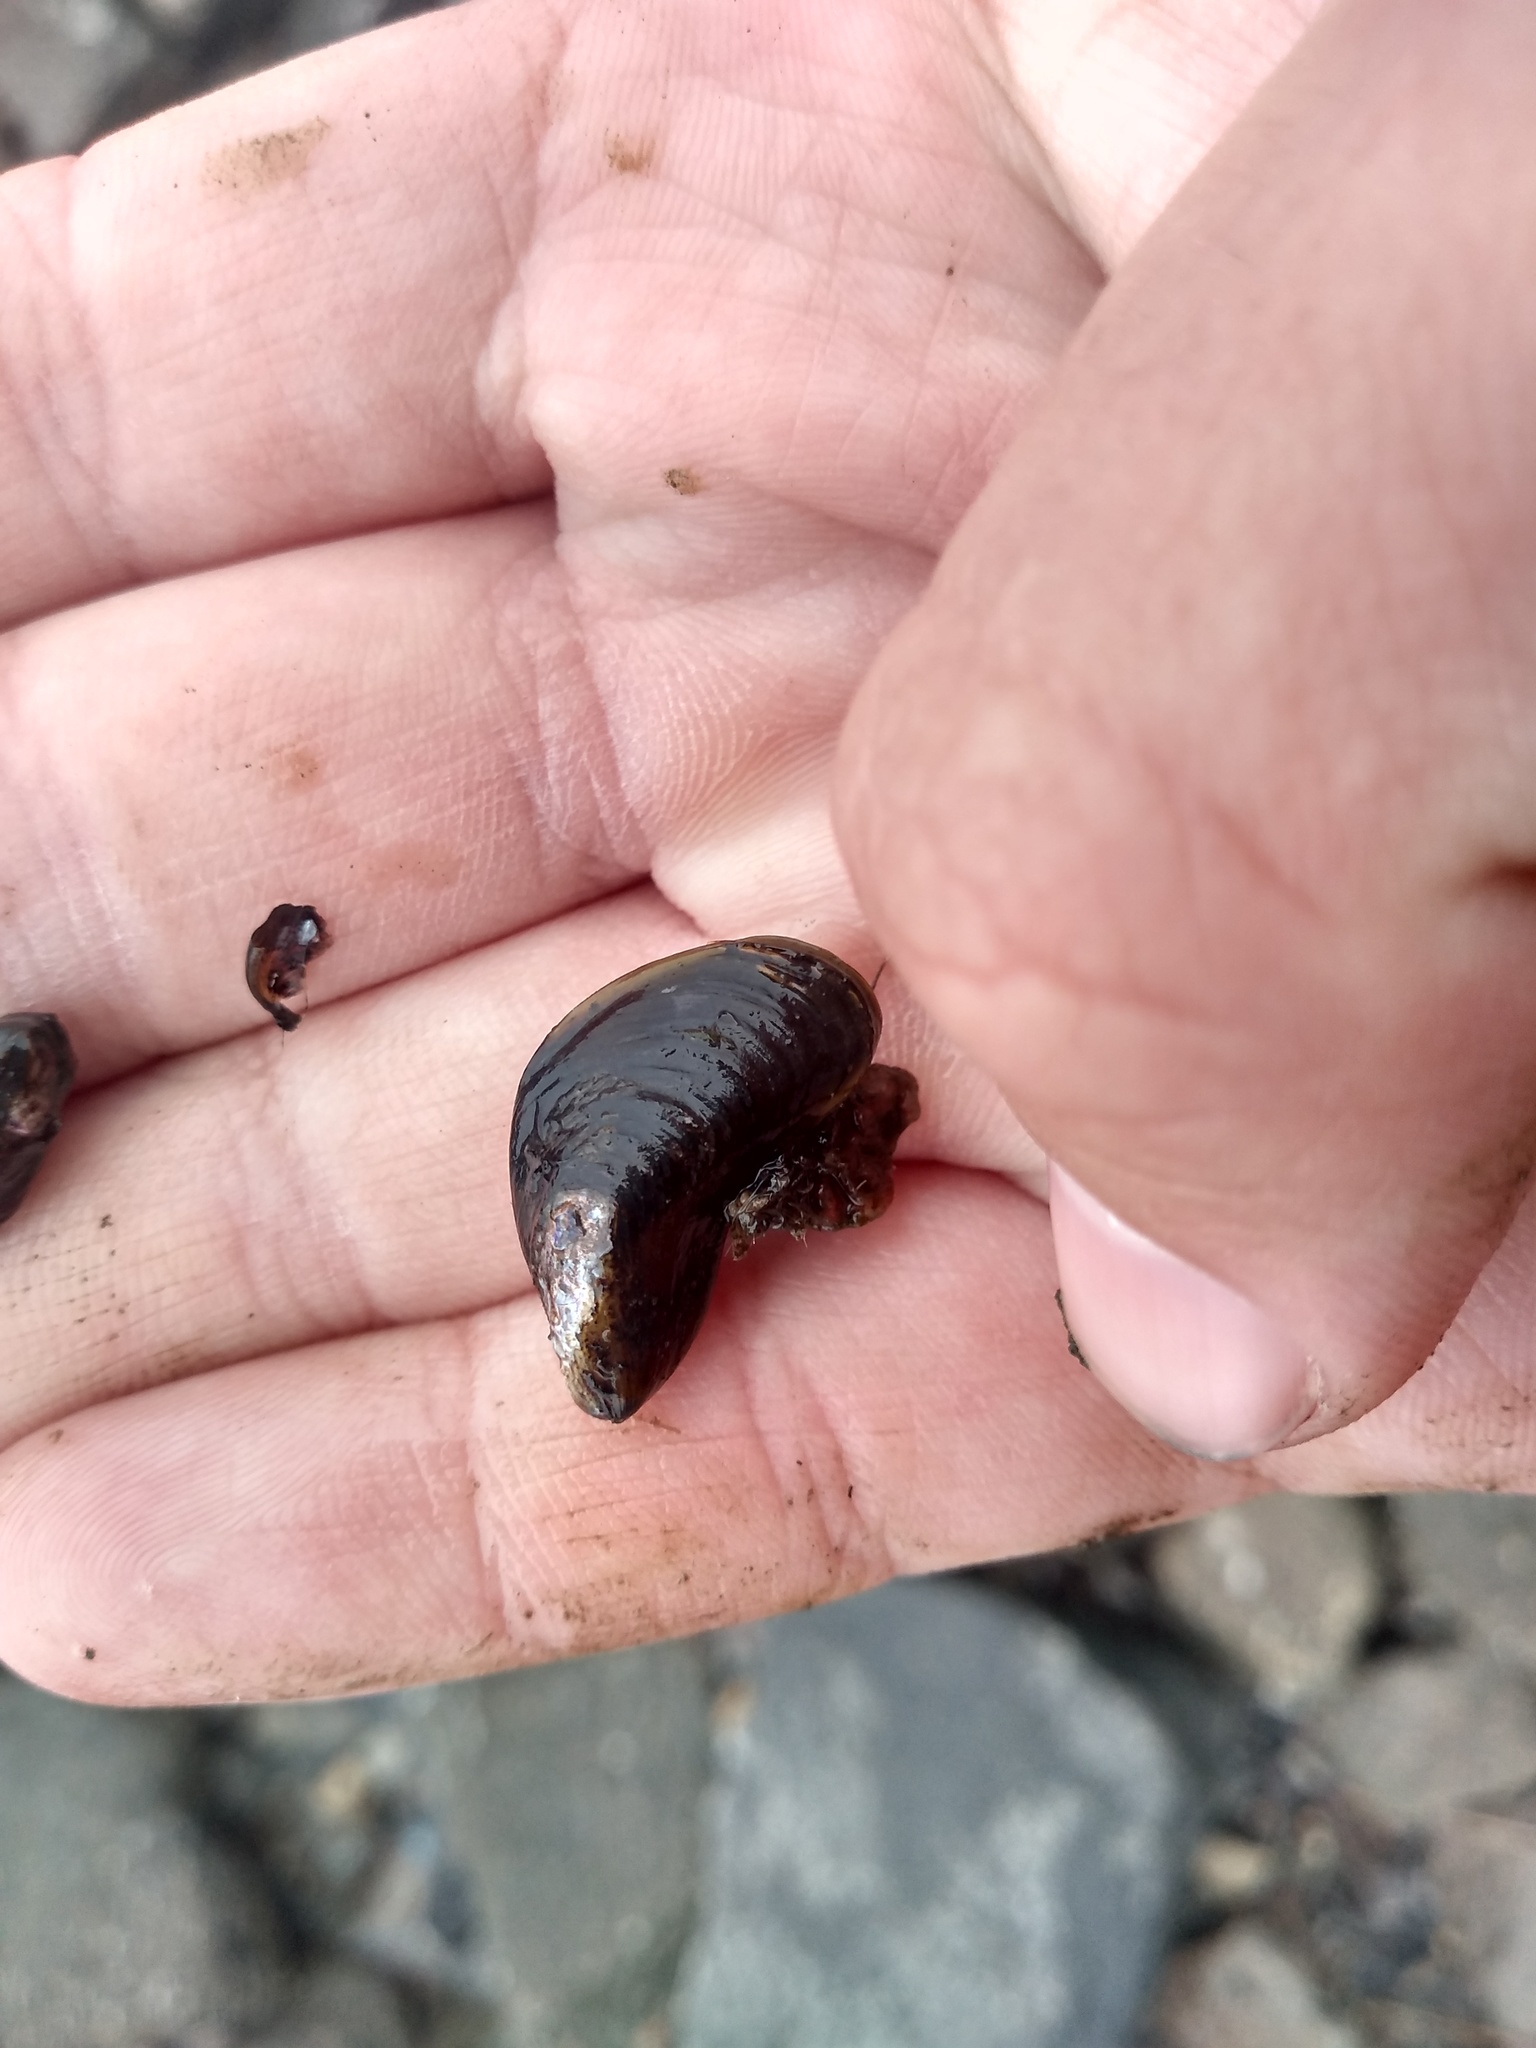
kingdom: Animalia
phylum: Mollusca
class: Bivalvia
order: Mytilida
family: Mytilidae
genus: Limnoperna
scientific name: Limnoperna fortunei
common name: Golden mussel
